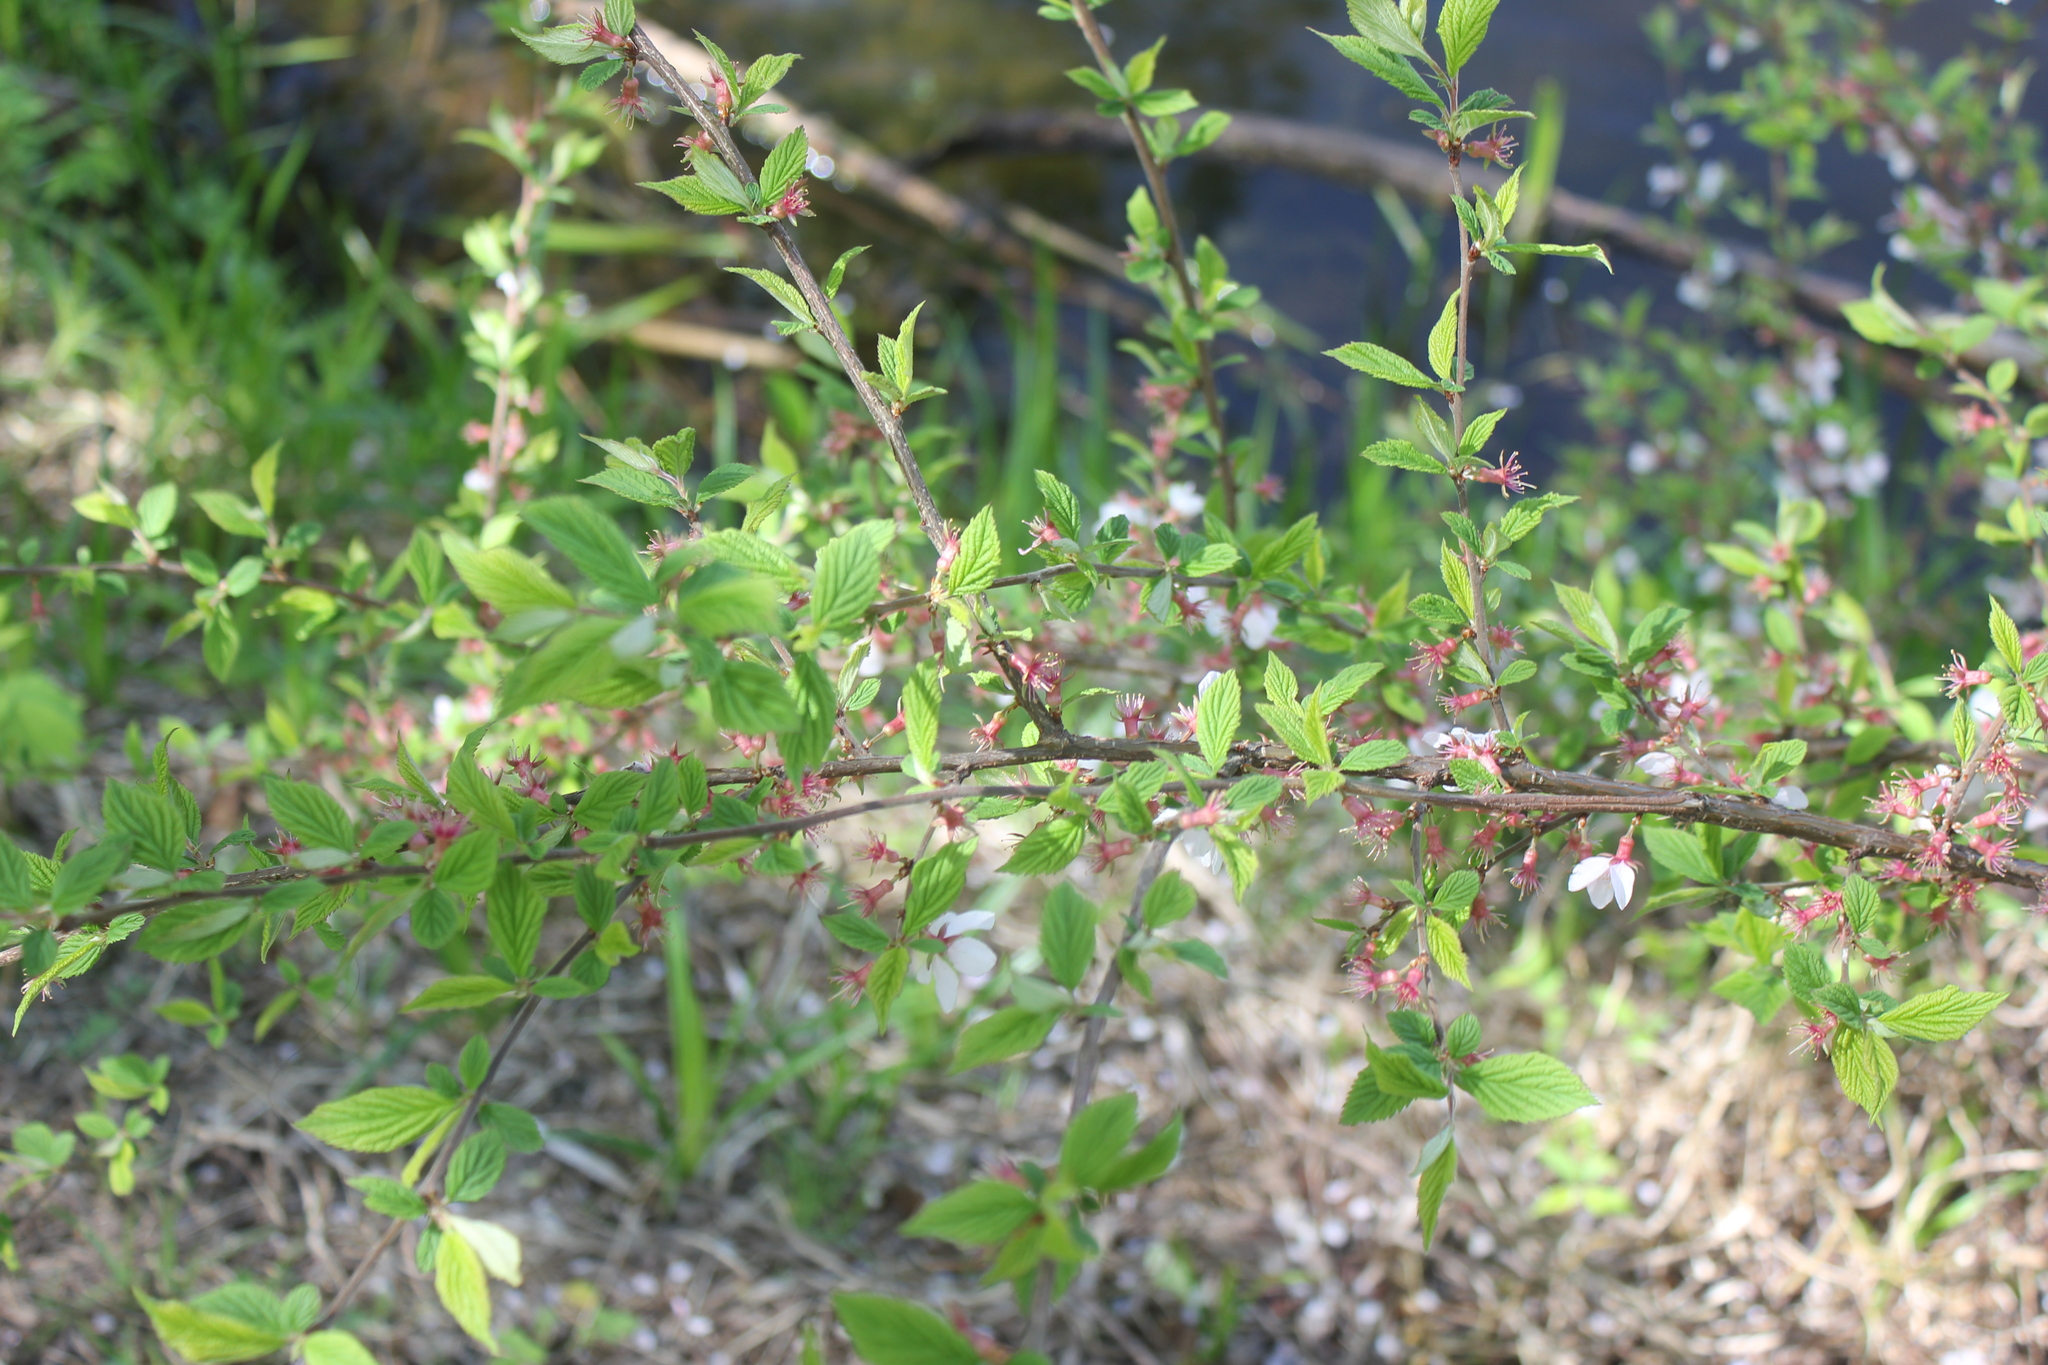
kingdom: Plantae
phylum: Tracheophyta
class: Magnoliopsida
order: Rosales
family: Rosaceae
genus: Prunus
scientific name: Prunus tomentosa
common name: Nanking cherry
